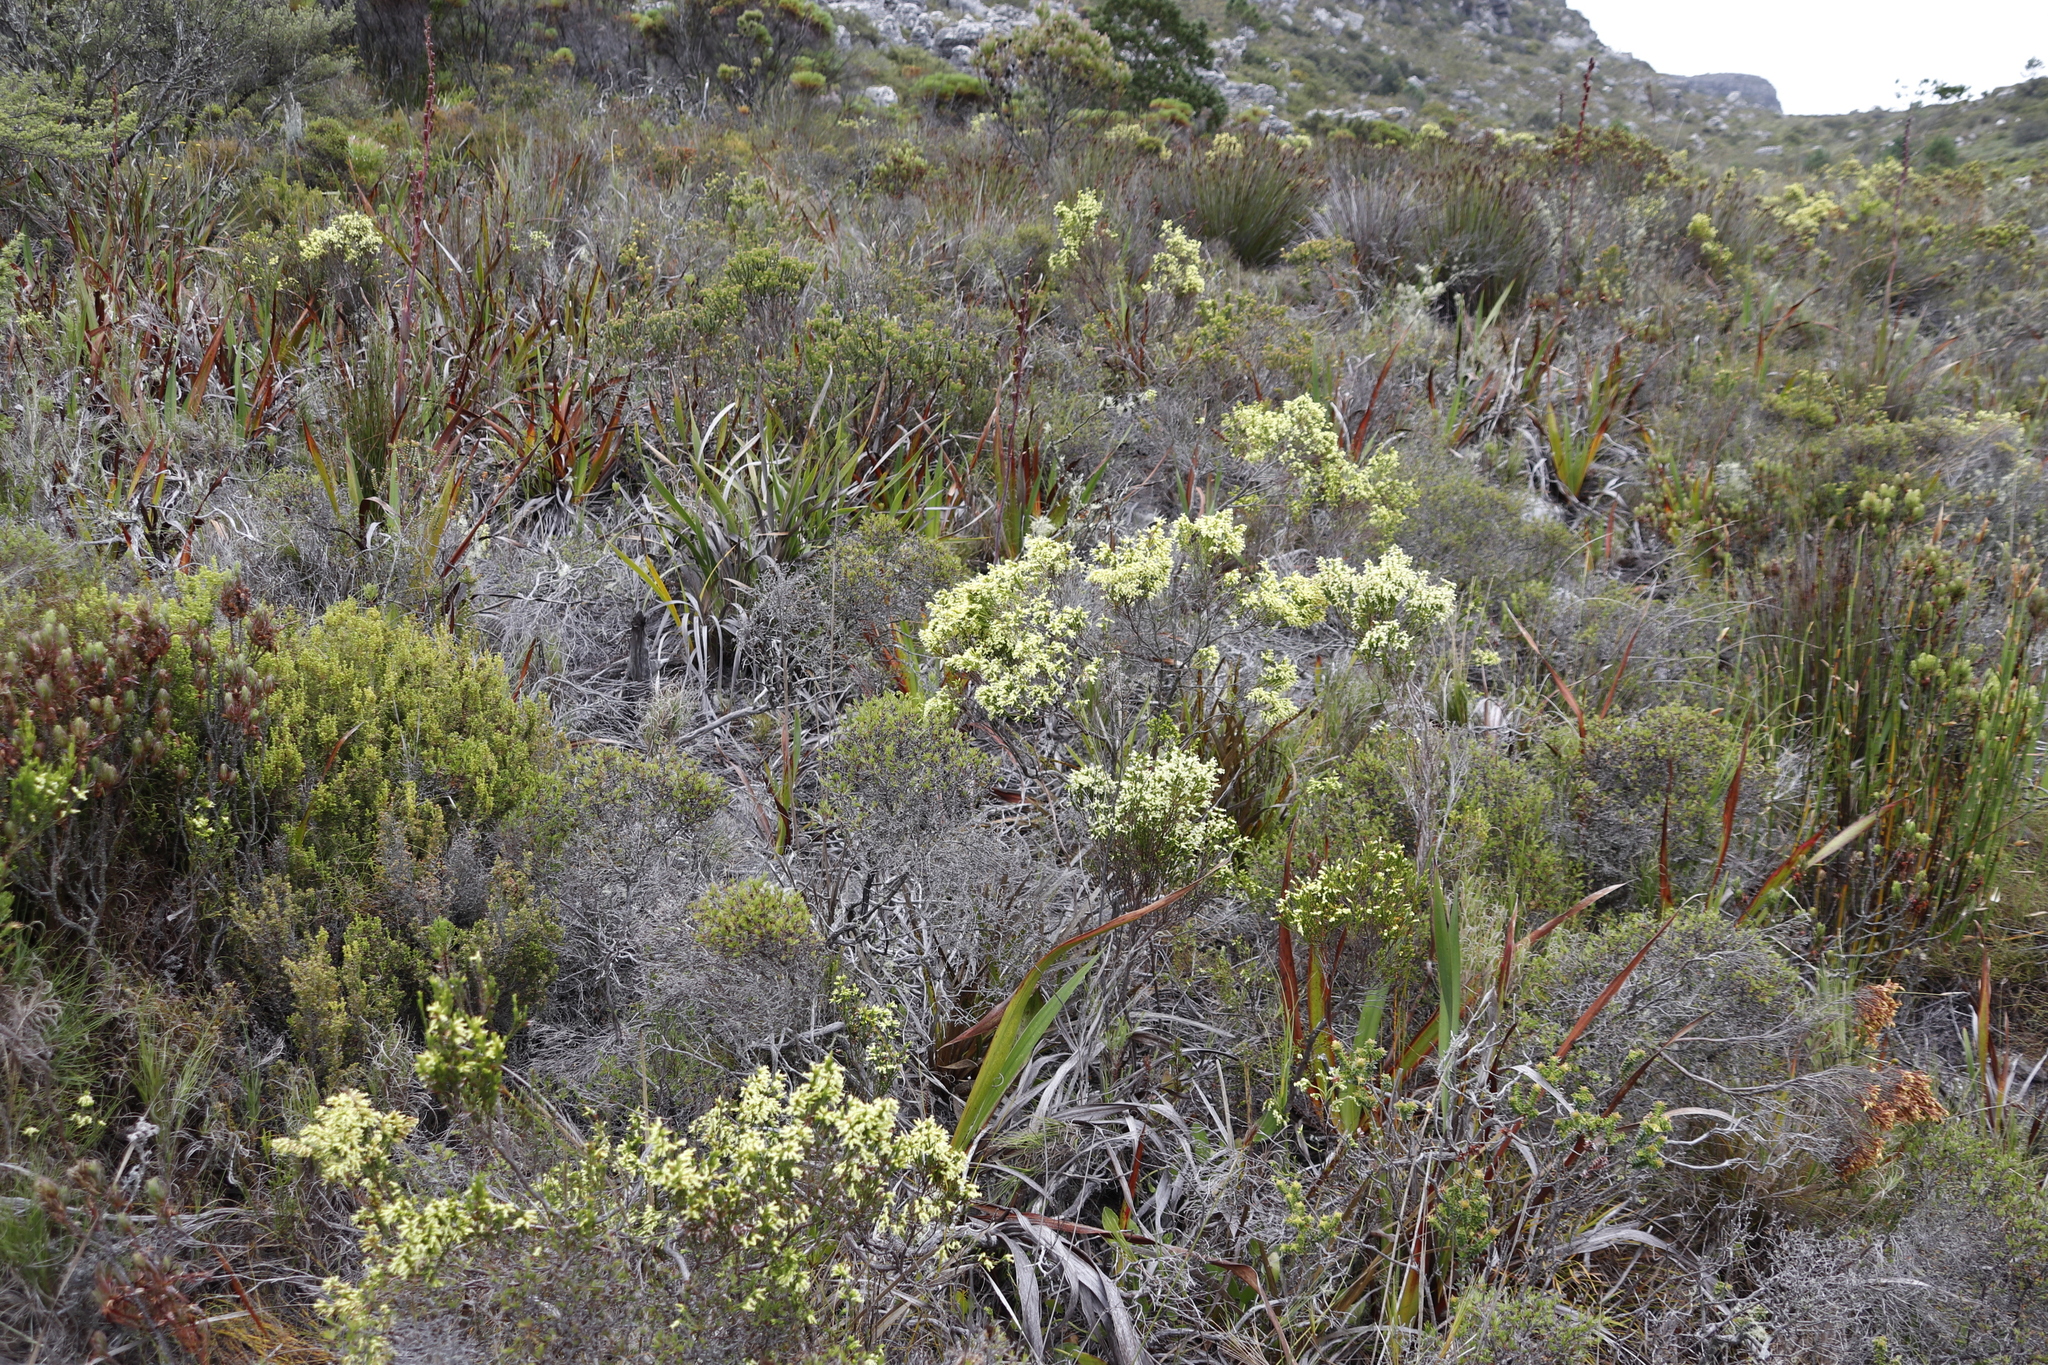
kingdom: Plantae
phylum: Tracheophyta
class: Magnoliopsida
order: Ericales
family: Ericaceae
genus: Erica
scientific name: Erica lutea
